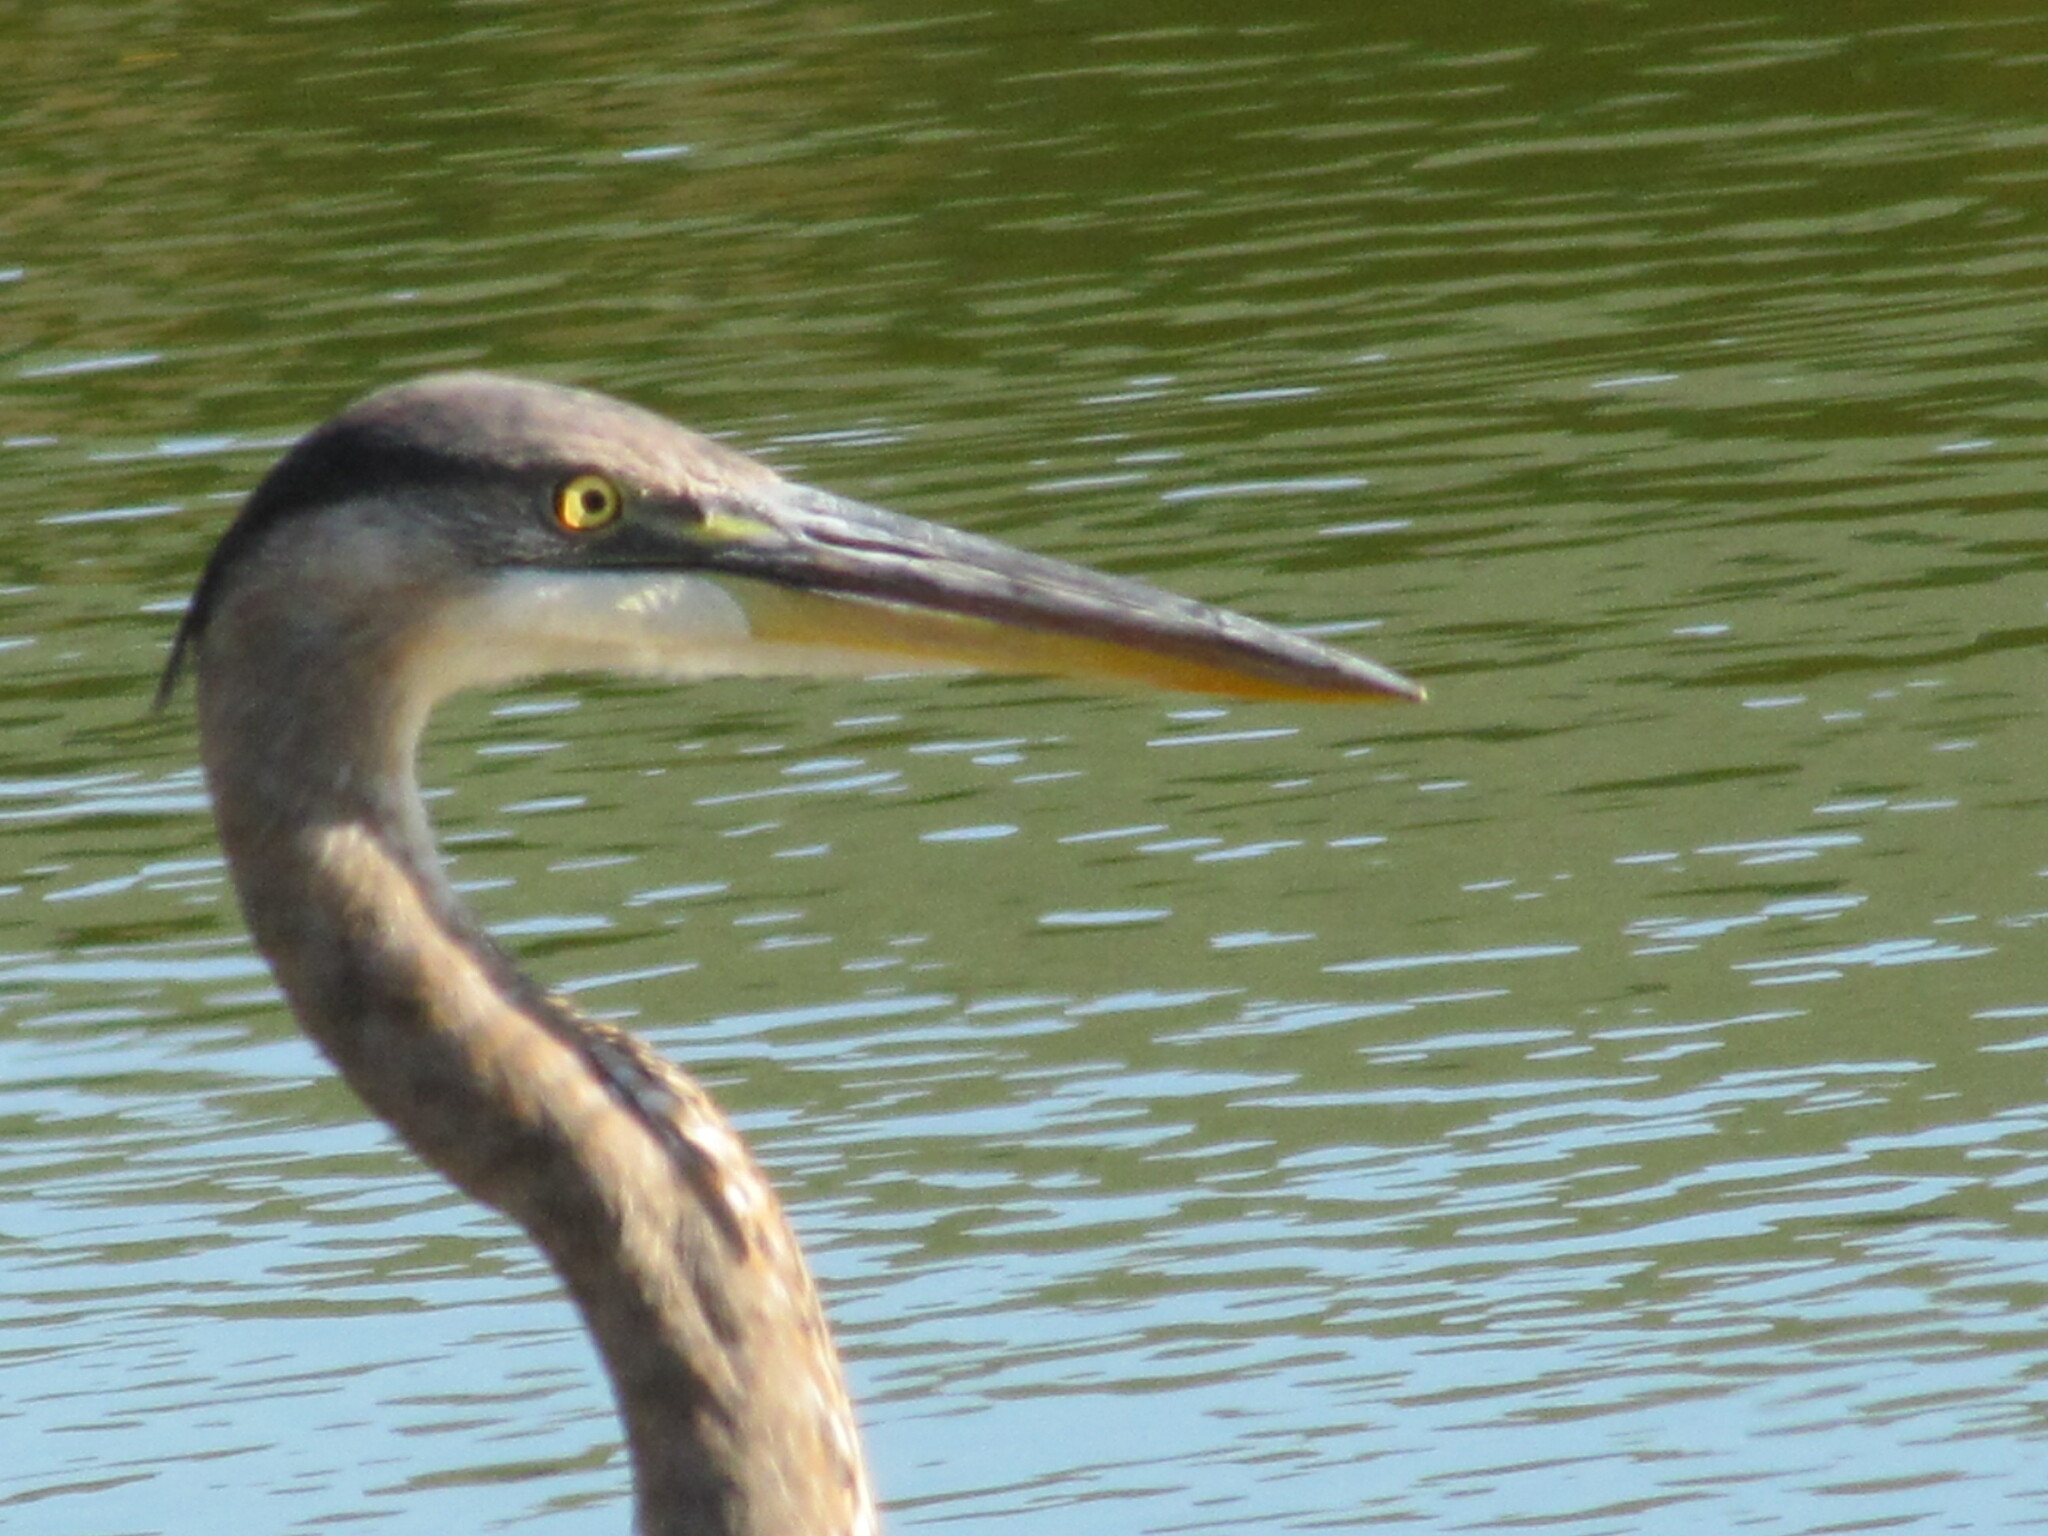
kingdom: Animalia
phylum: Chordata
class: Aves
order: Pelecaniformes
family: Ardeidae
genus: Ardea
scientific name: Ardea herodias
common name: Great blue heron
